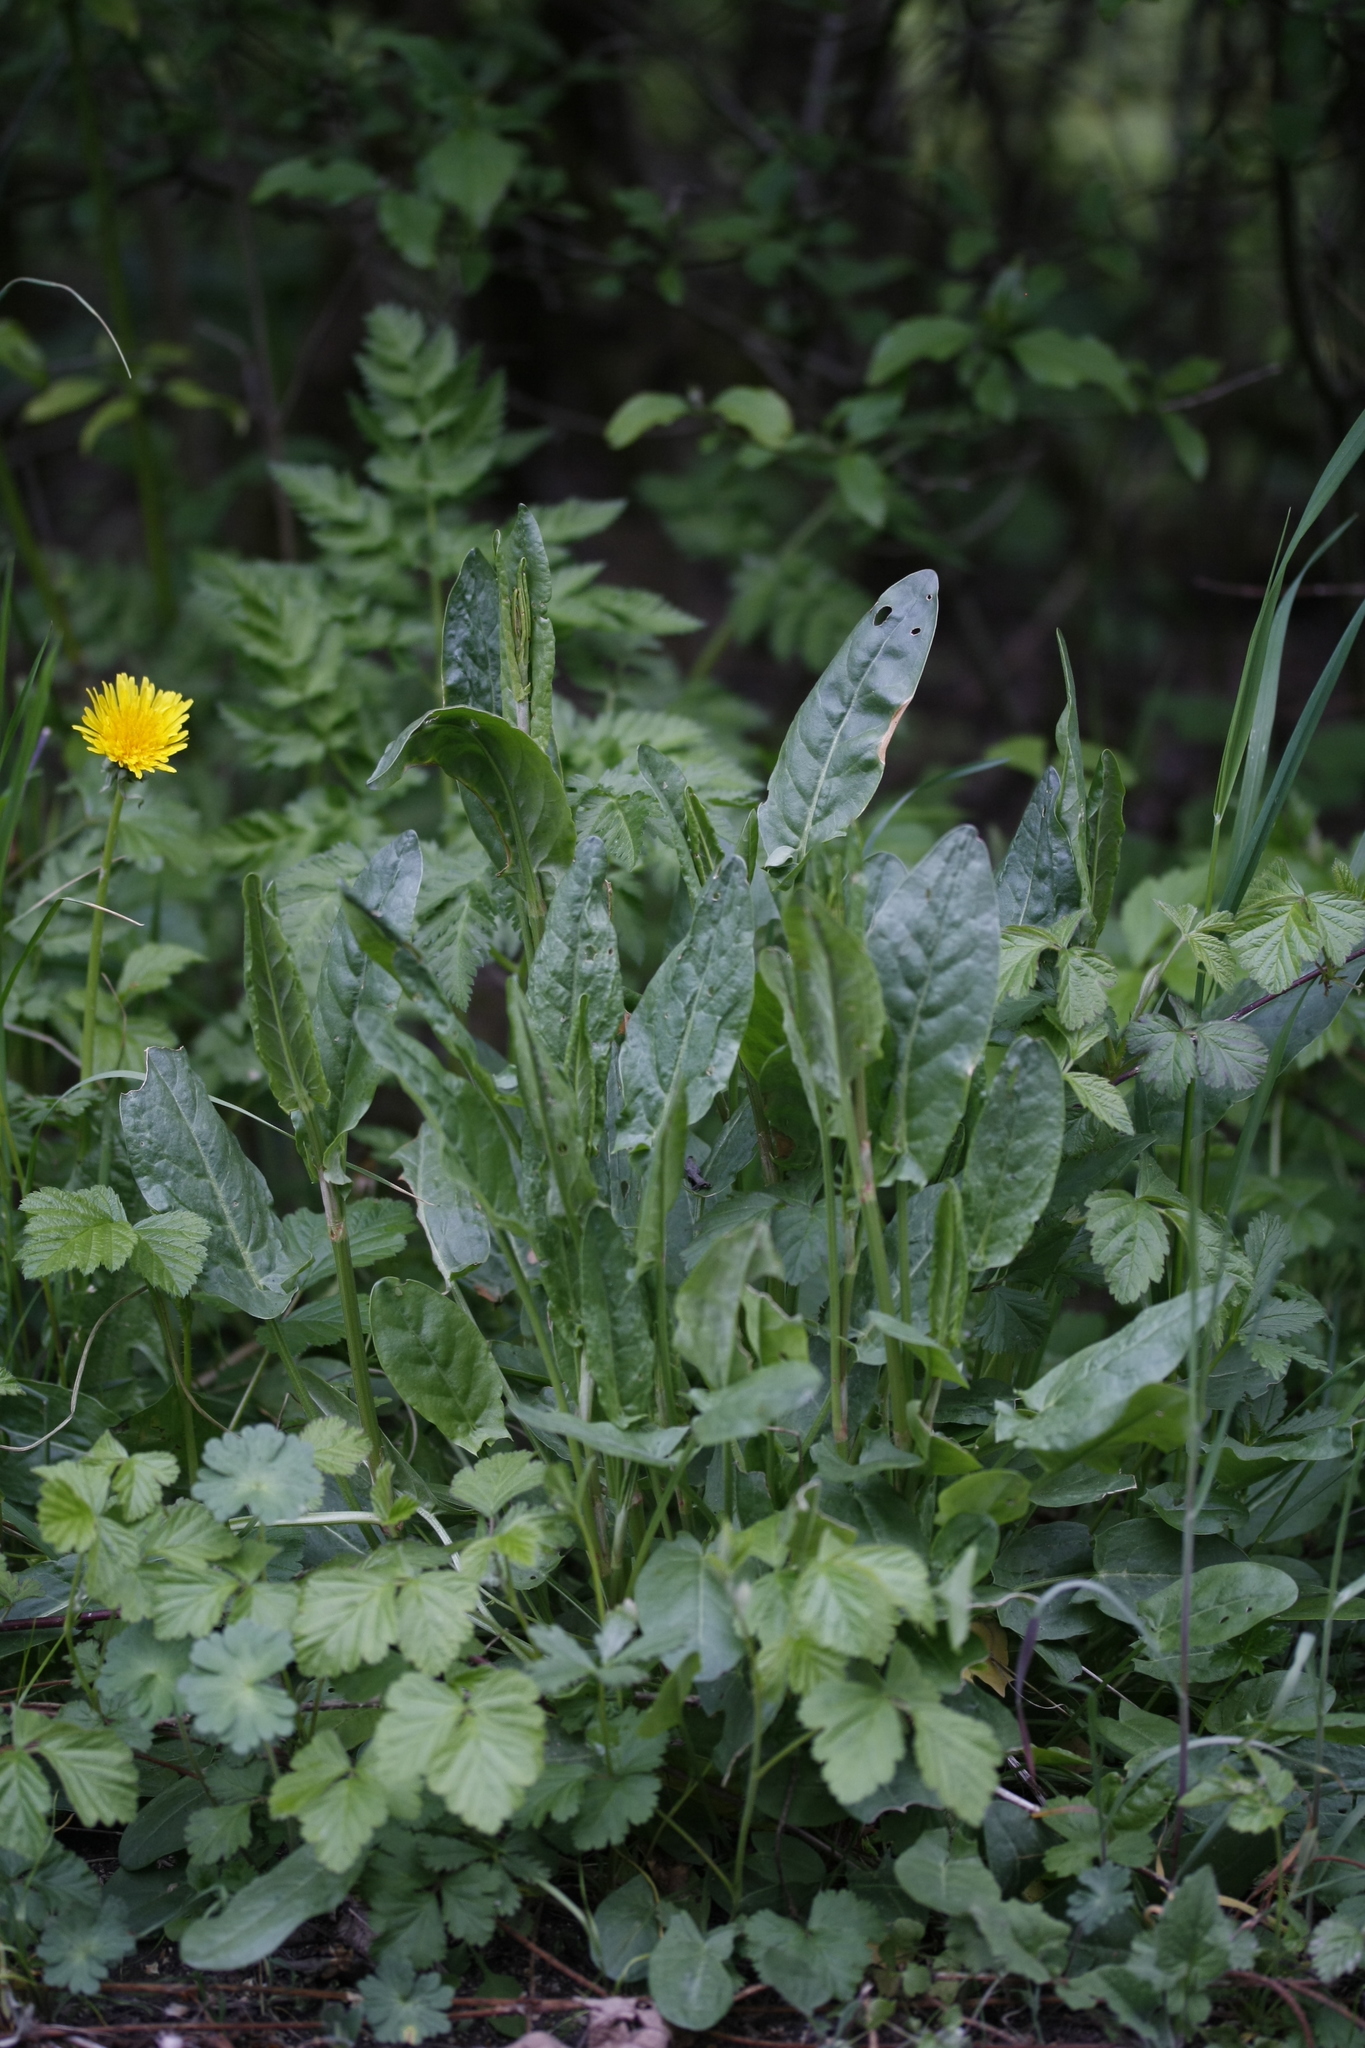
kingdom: Plantae
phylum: Tracheophyta
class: Magnoliopsida
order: Caryophyllales
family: Polygonaceae
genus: Rumex
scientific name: Rumex acetosa
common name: Garden sorrel
